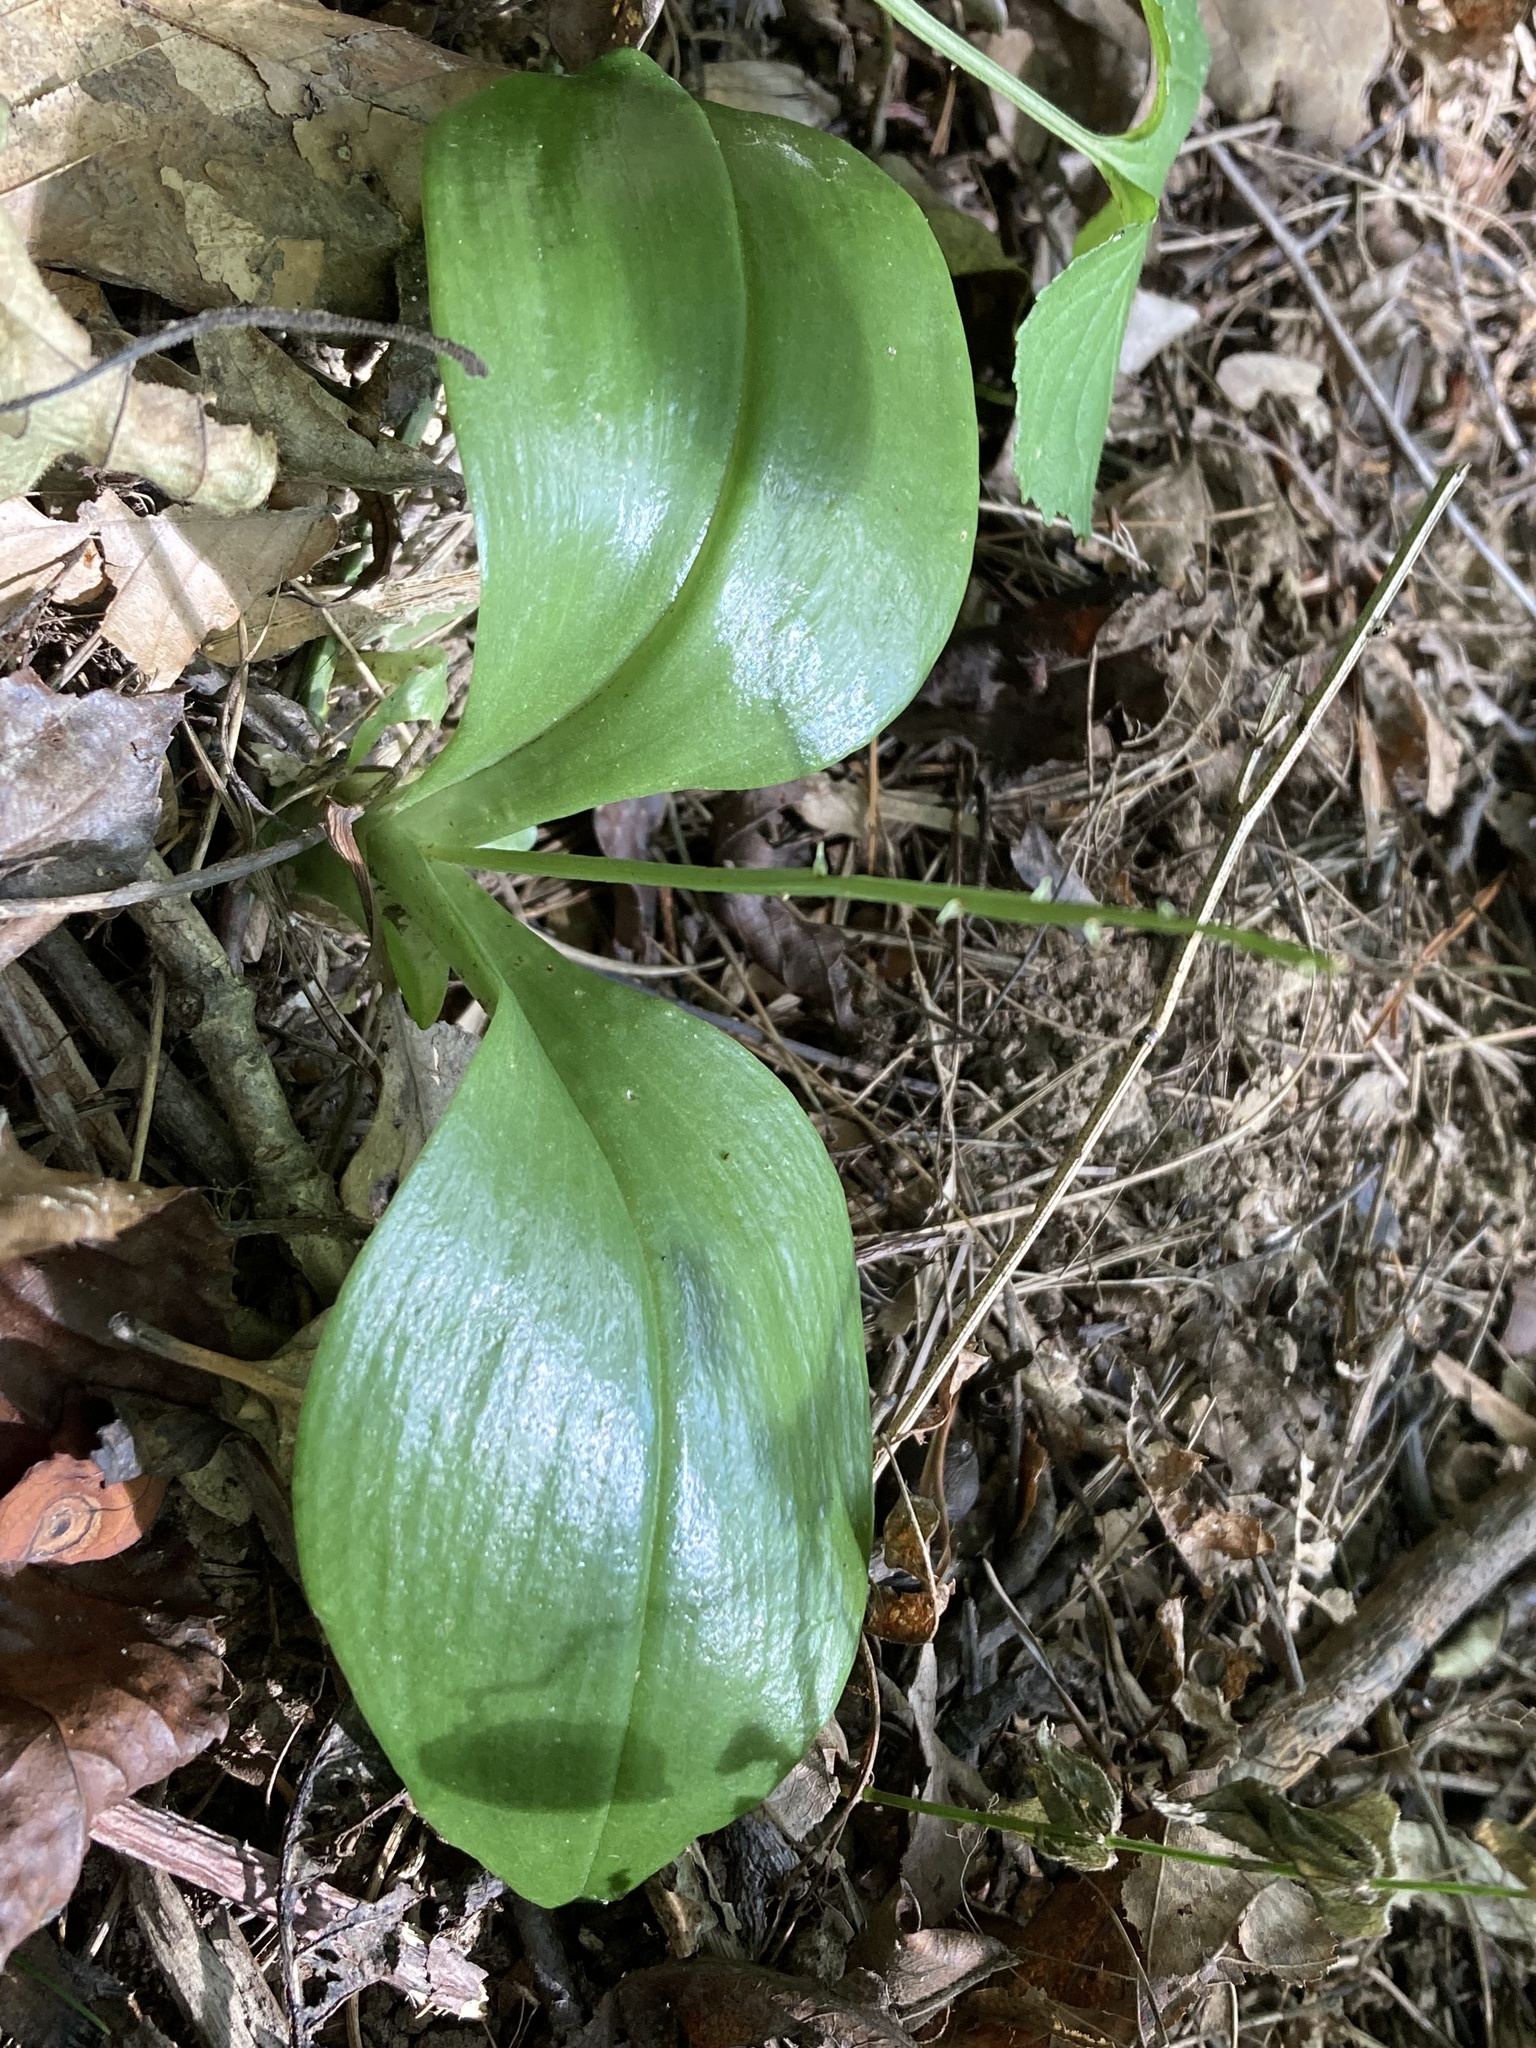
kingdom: Plantae
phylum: Tracheophyta
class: Liliopsida
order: Asparagales
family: Orchidaceae
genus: Liparis
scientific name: Liparis liliifolia
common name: Brown wide-lip orchid
